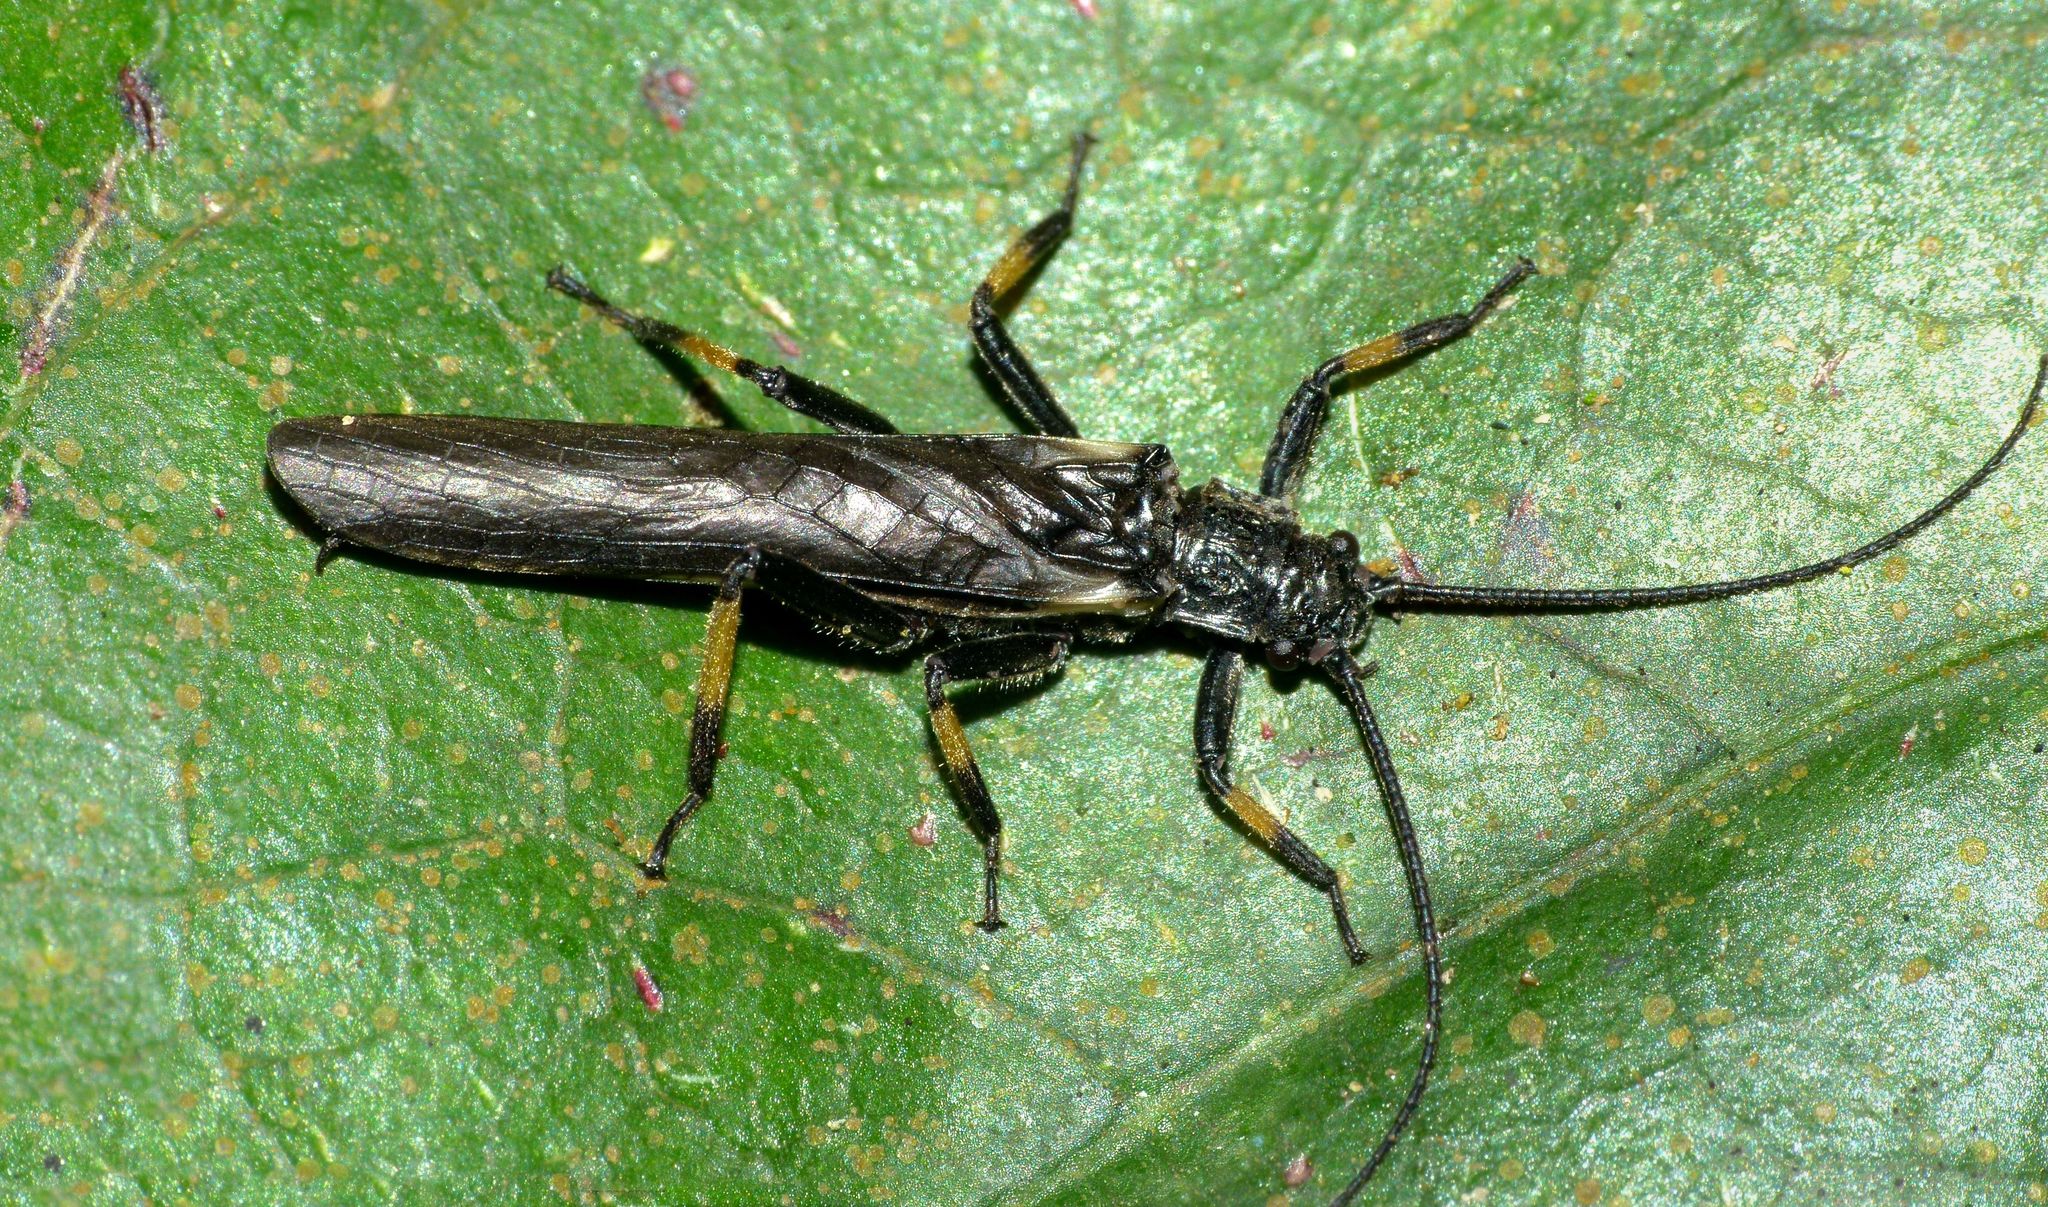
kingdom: Animalia
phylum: Arthropoda
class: Insecta
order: Plecoptera
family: Austroperlidae
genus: Austroperla
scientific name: Austroperla cyrene
